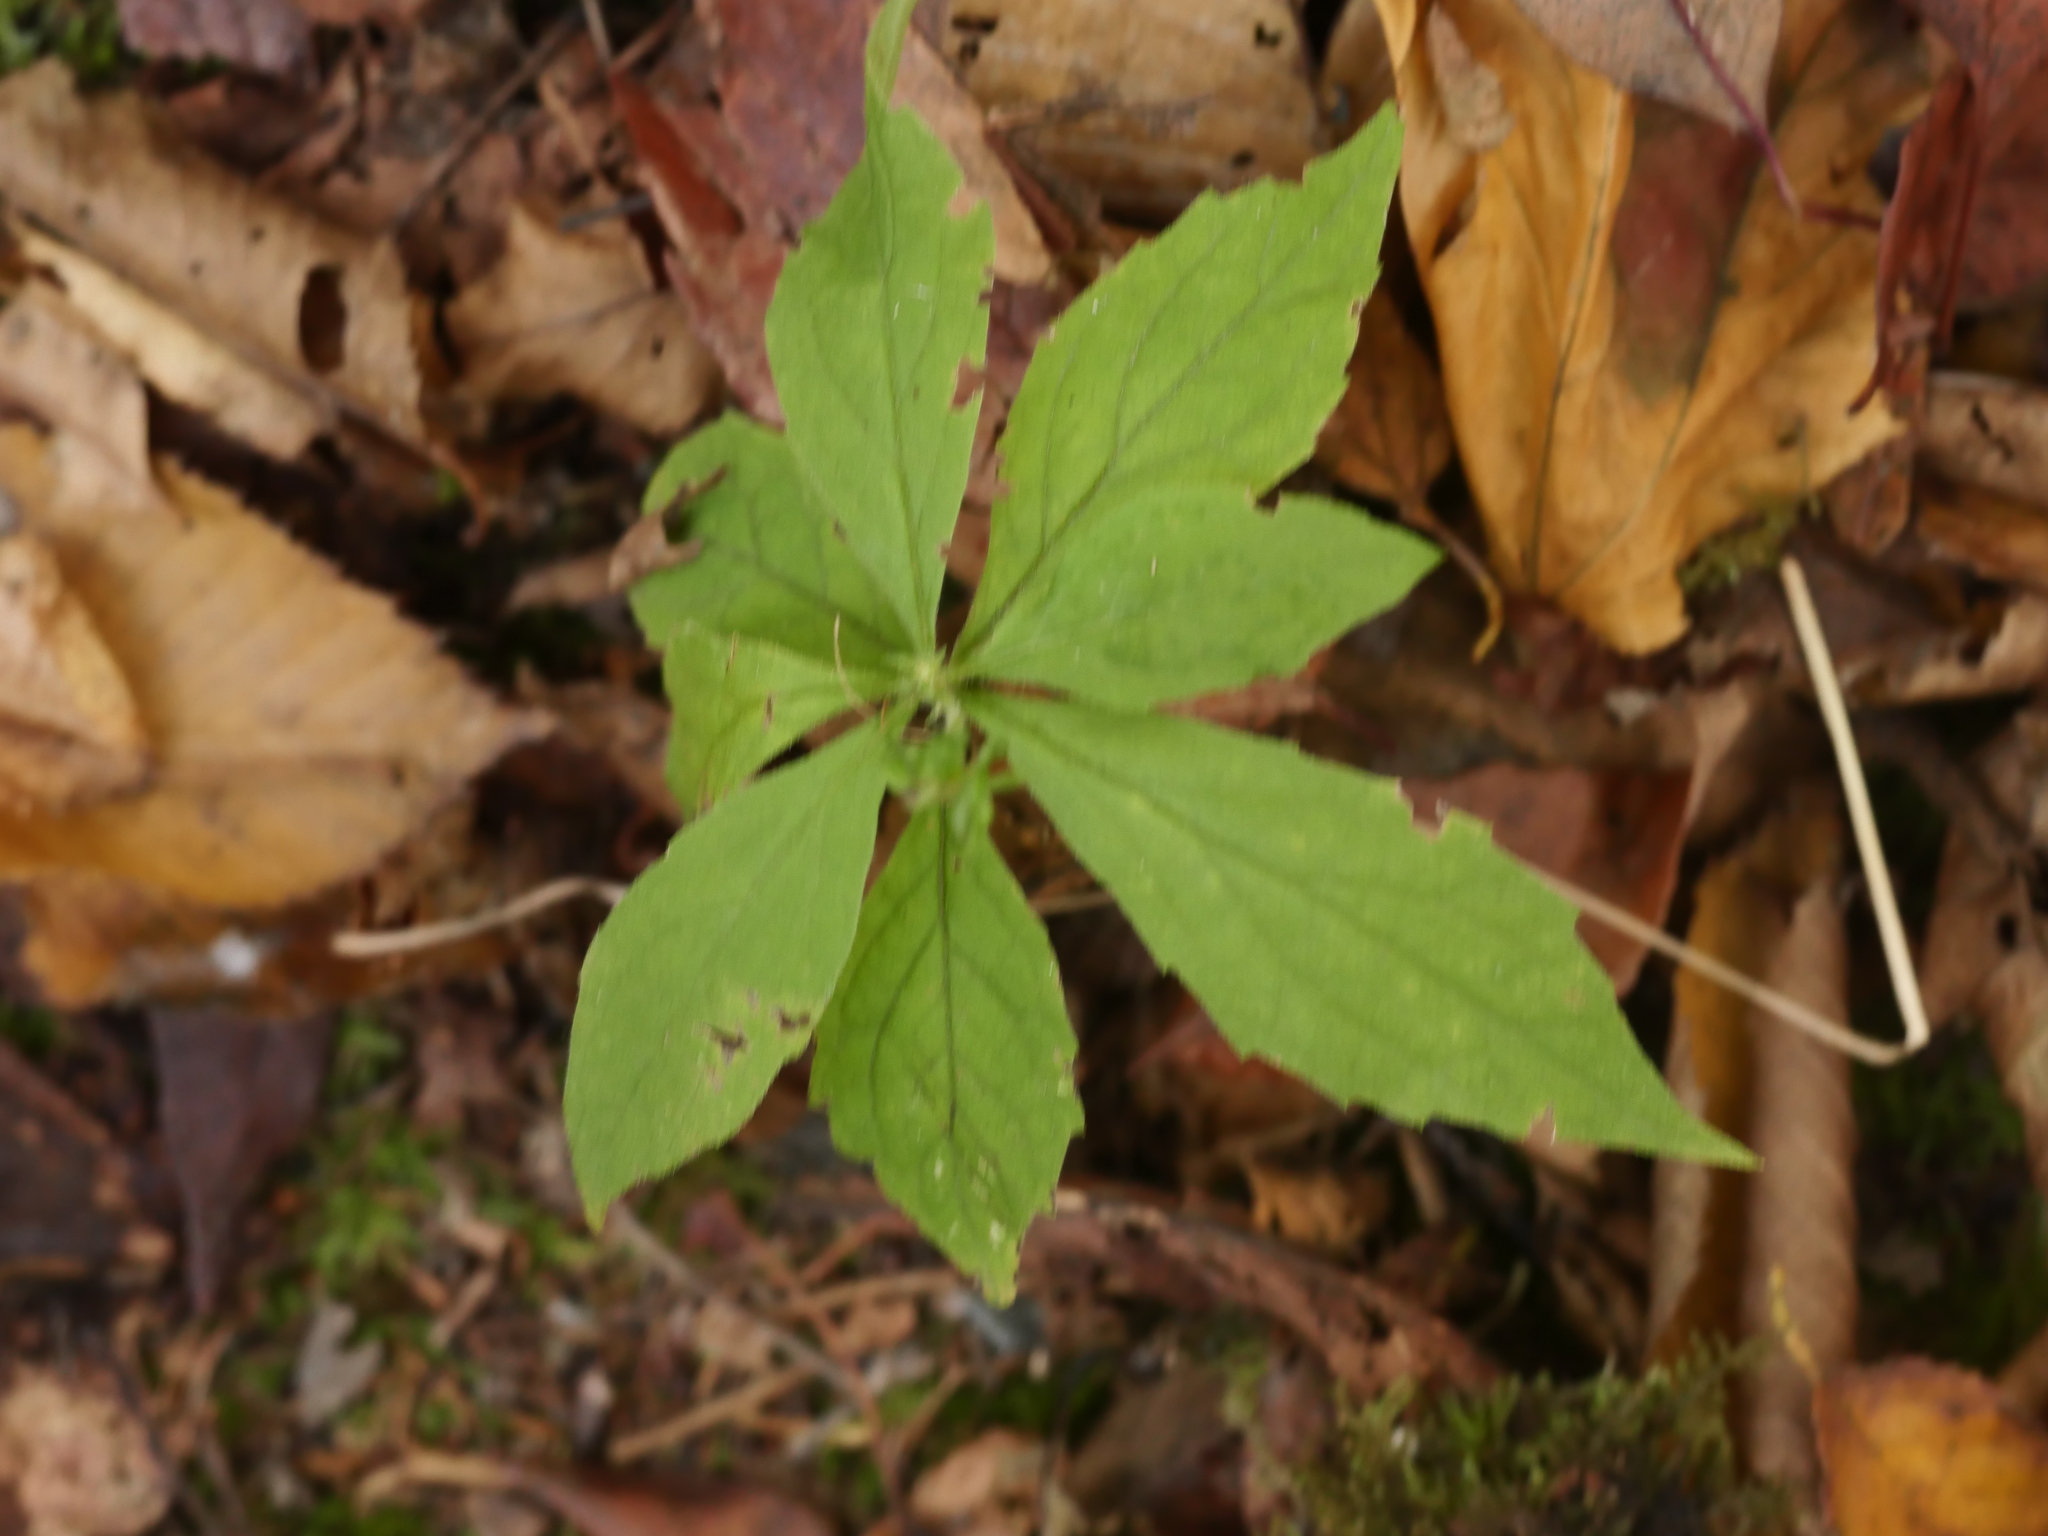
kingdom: Plantae
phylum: Tracheophyta
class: Magnoliopsida
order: Asterales
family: Asteraceae
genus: Oclemena
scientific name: Oclemena acuminata
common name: Mountain aster
